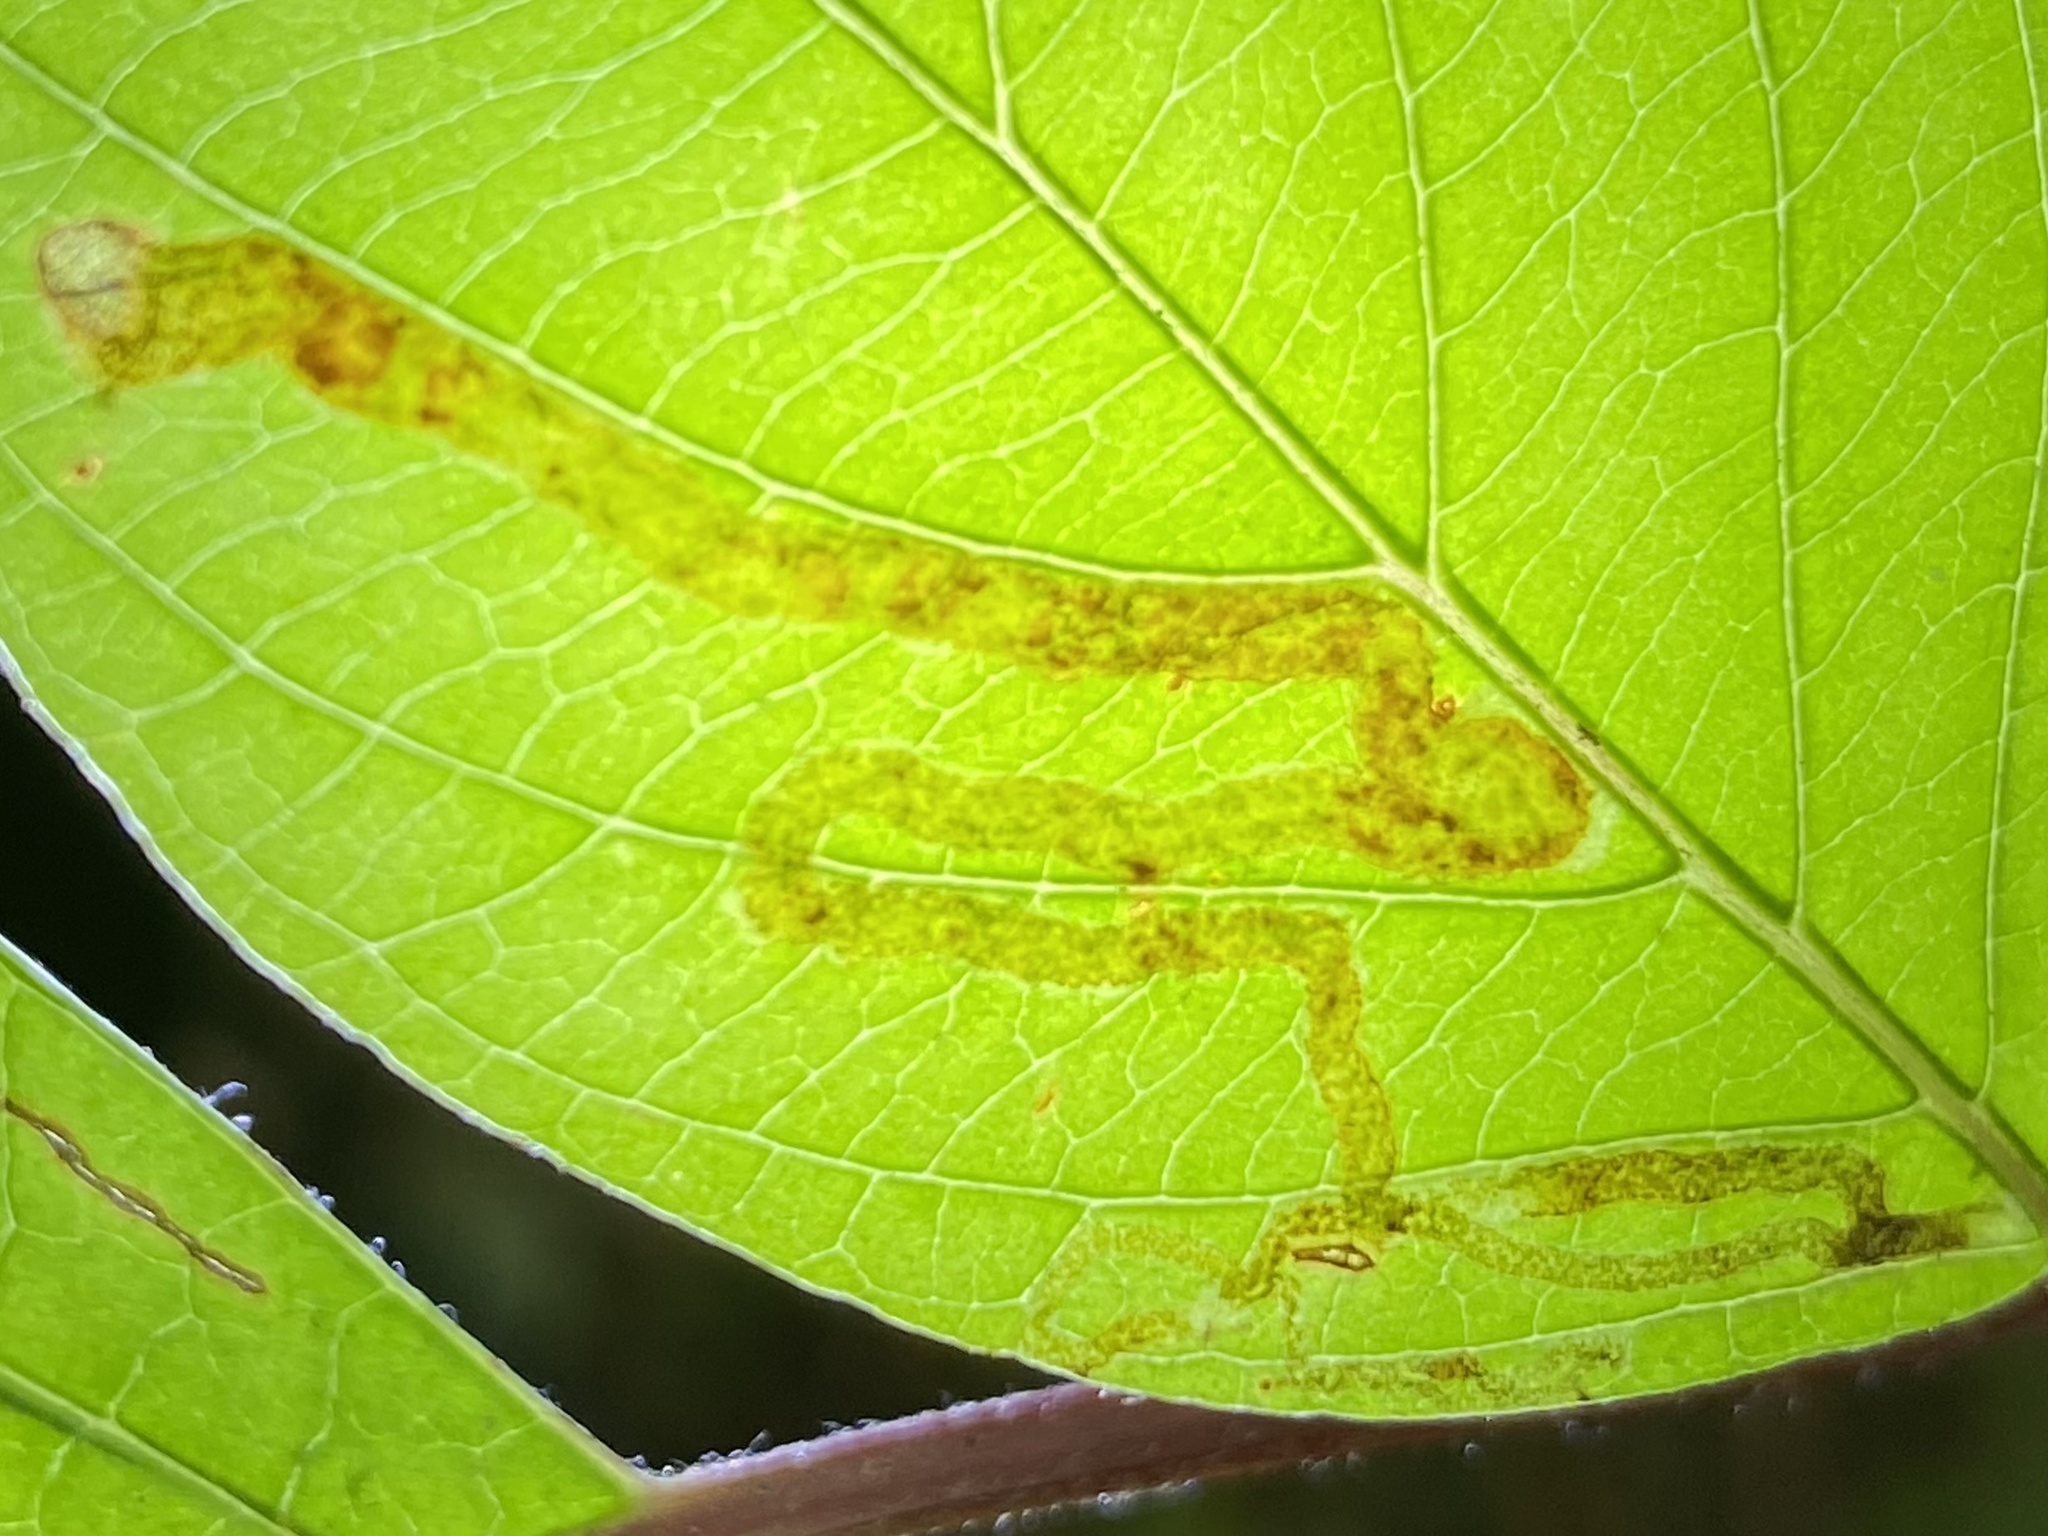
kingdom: Animalia
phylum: Arthropoda
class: Insecta
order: Diptera
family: Agromyzidae
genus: Phytomyza
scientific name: Phytomyza agromyzina
